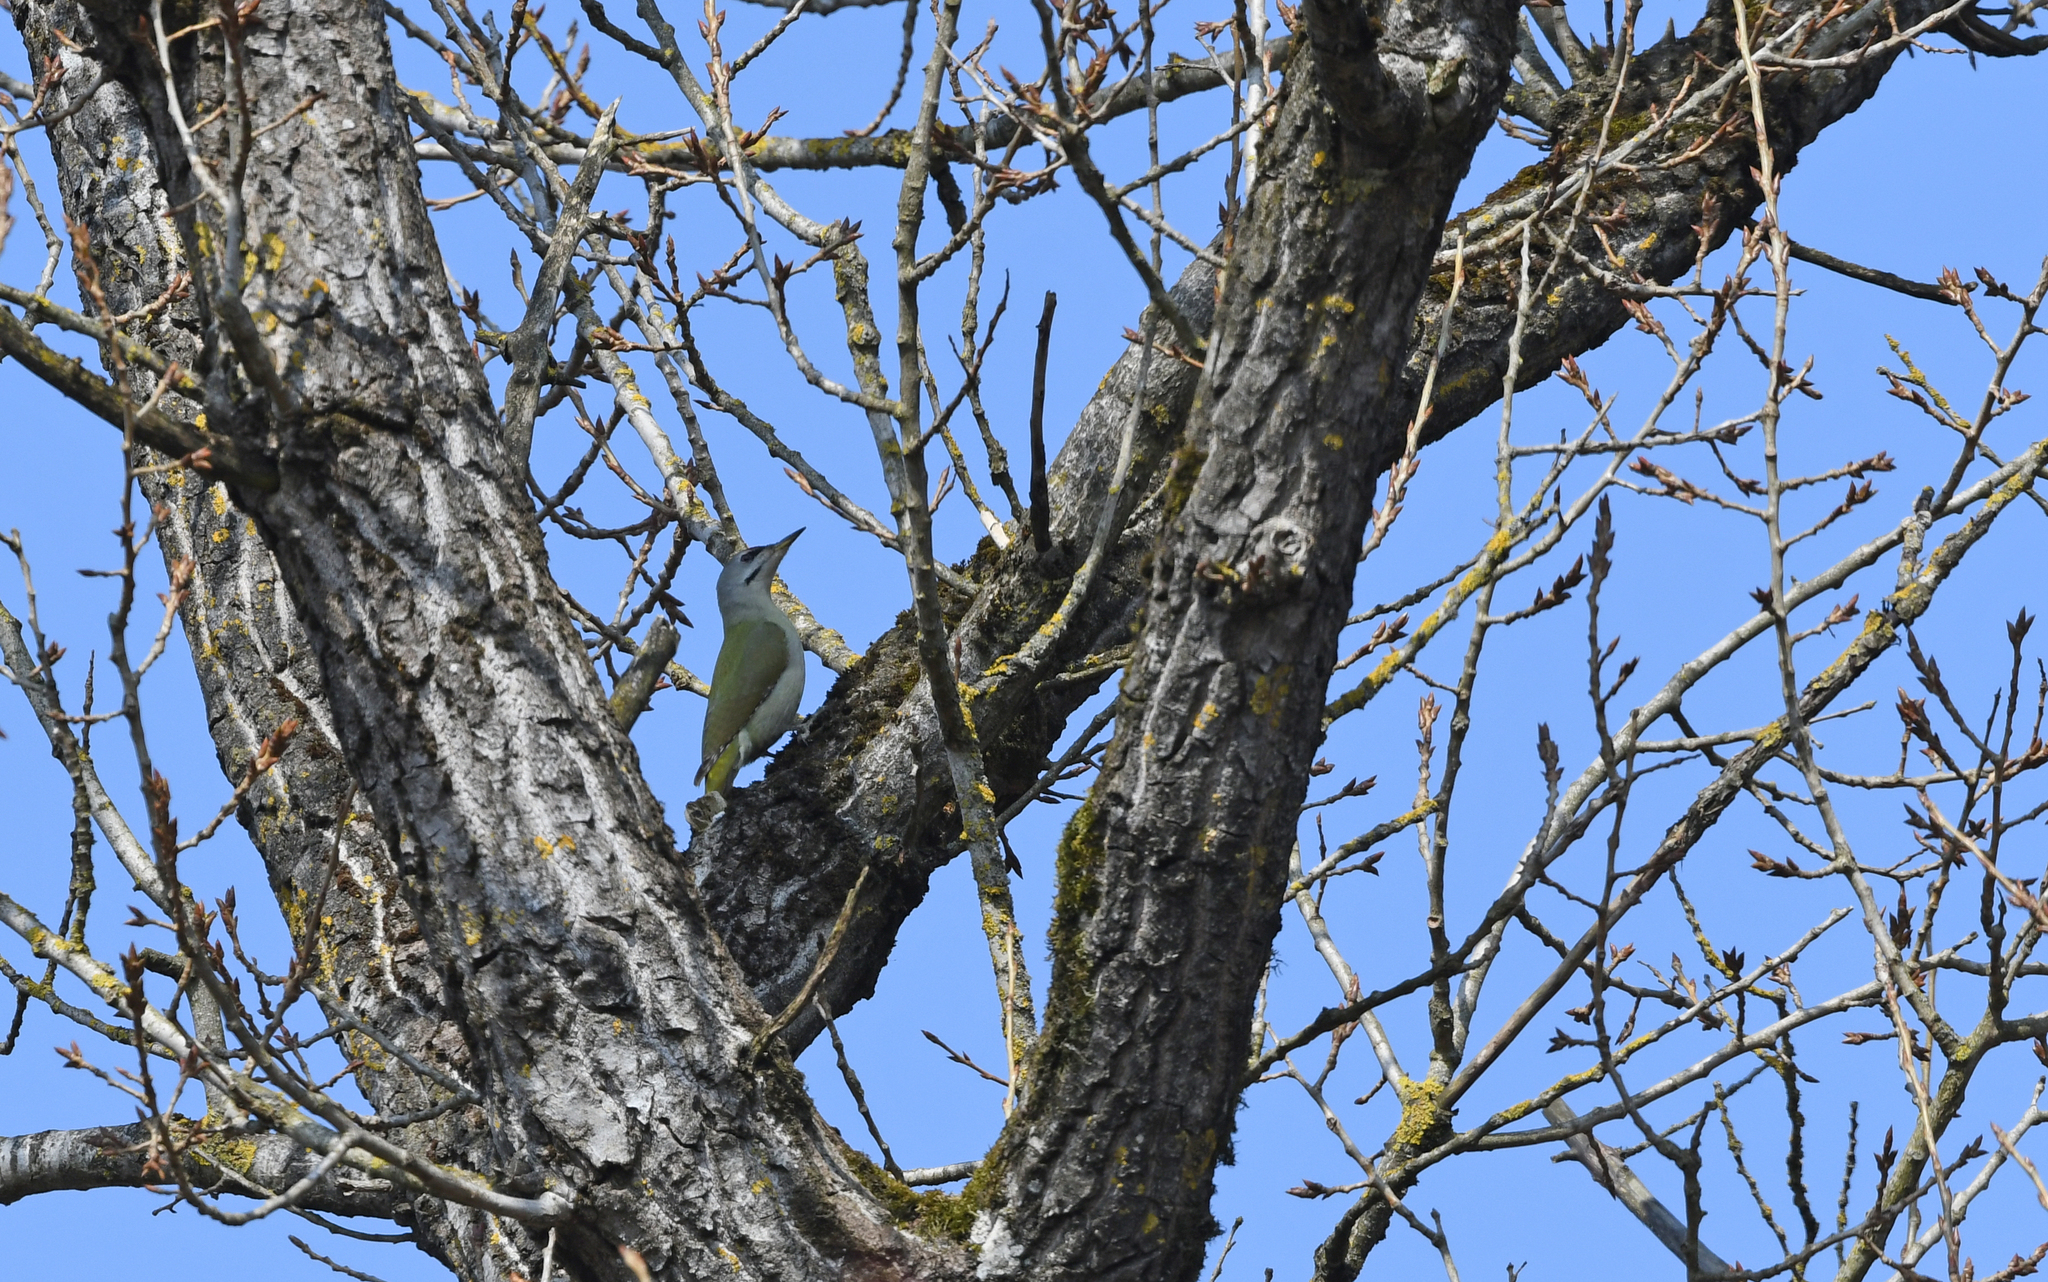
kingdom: Animalia
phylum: Chordata
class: Aves
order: Piciformes
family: Picidae
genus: Picus
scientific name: Picus canus
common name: Grey-headed woodpecker
